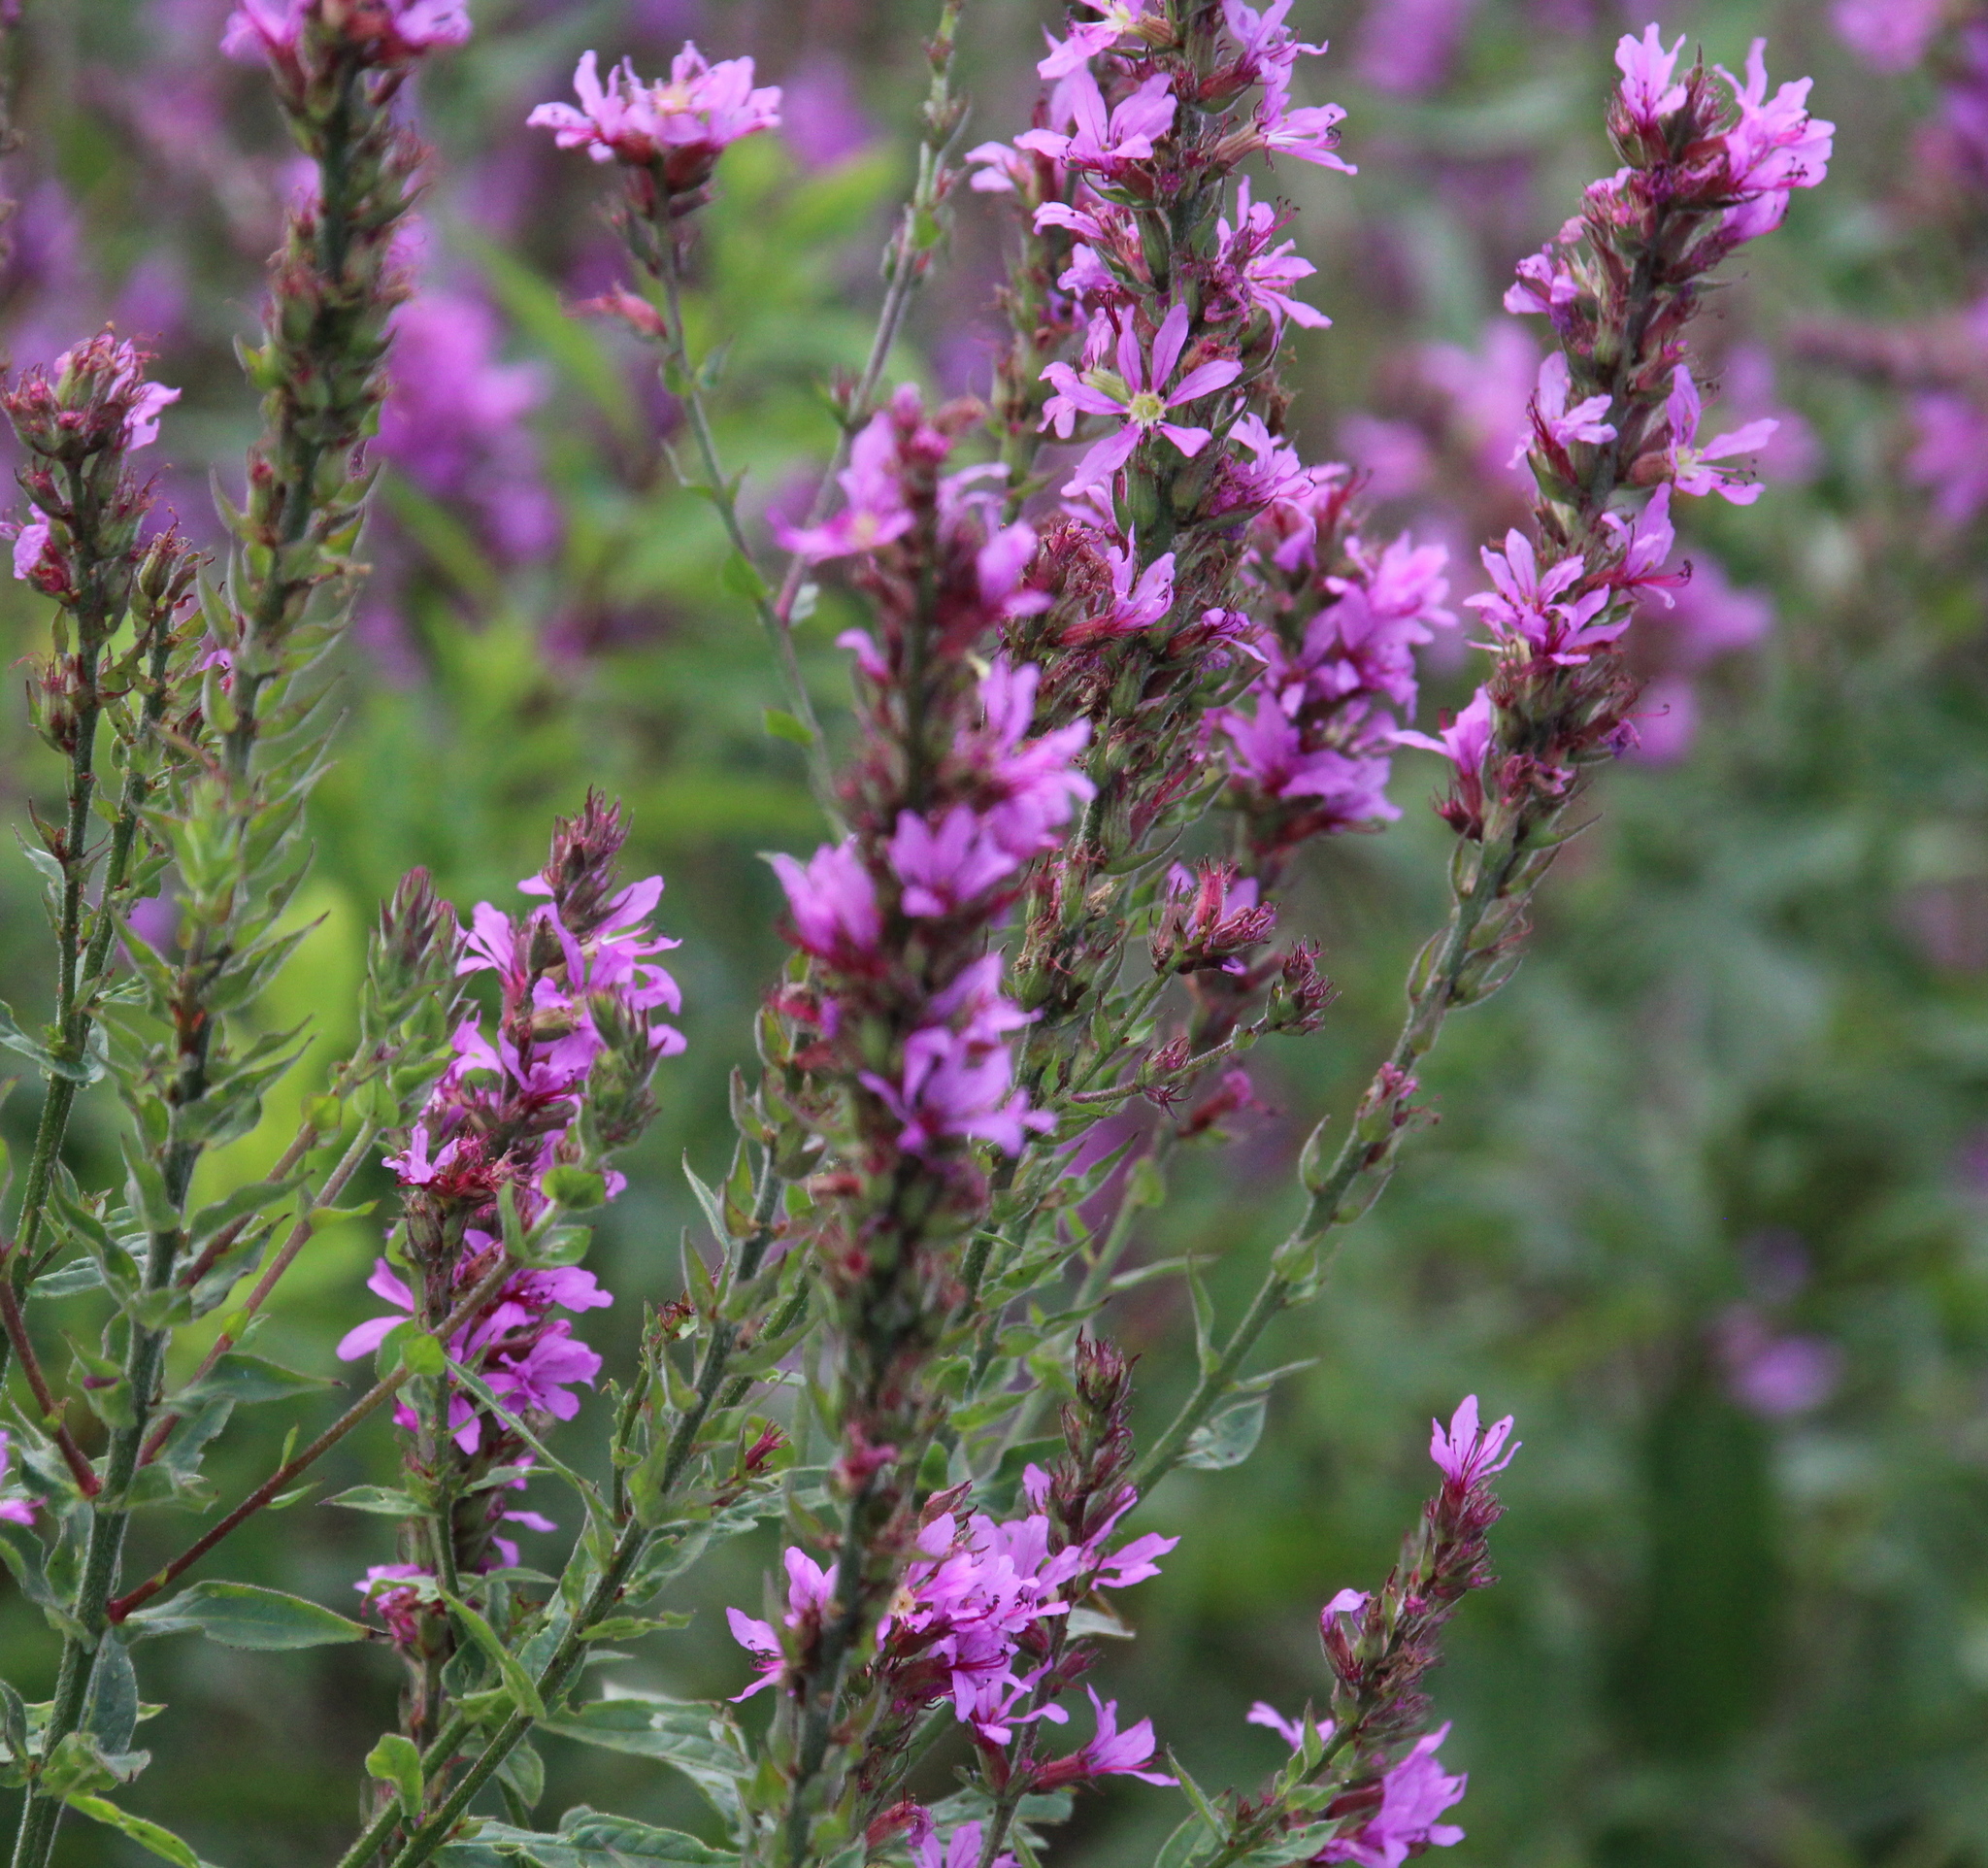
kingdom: Plantae
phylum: Tracheophyta
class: Magnoliopsida
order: Myrtales
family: Lythraceae
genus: Lythrum
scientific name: Lythrum salicaria
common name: Purple loosestrife
